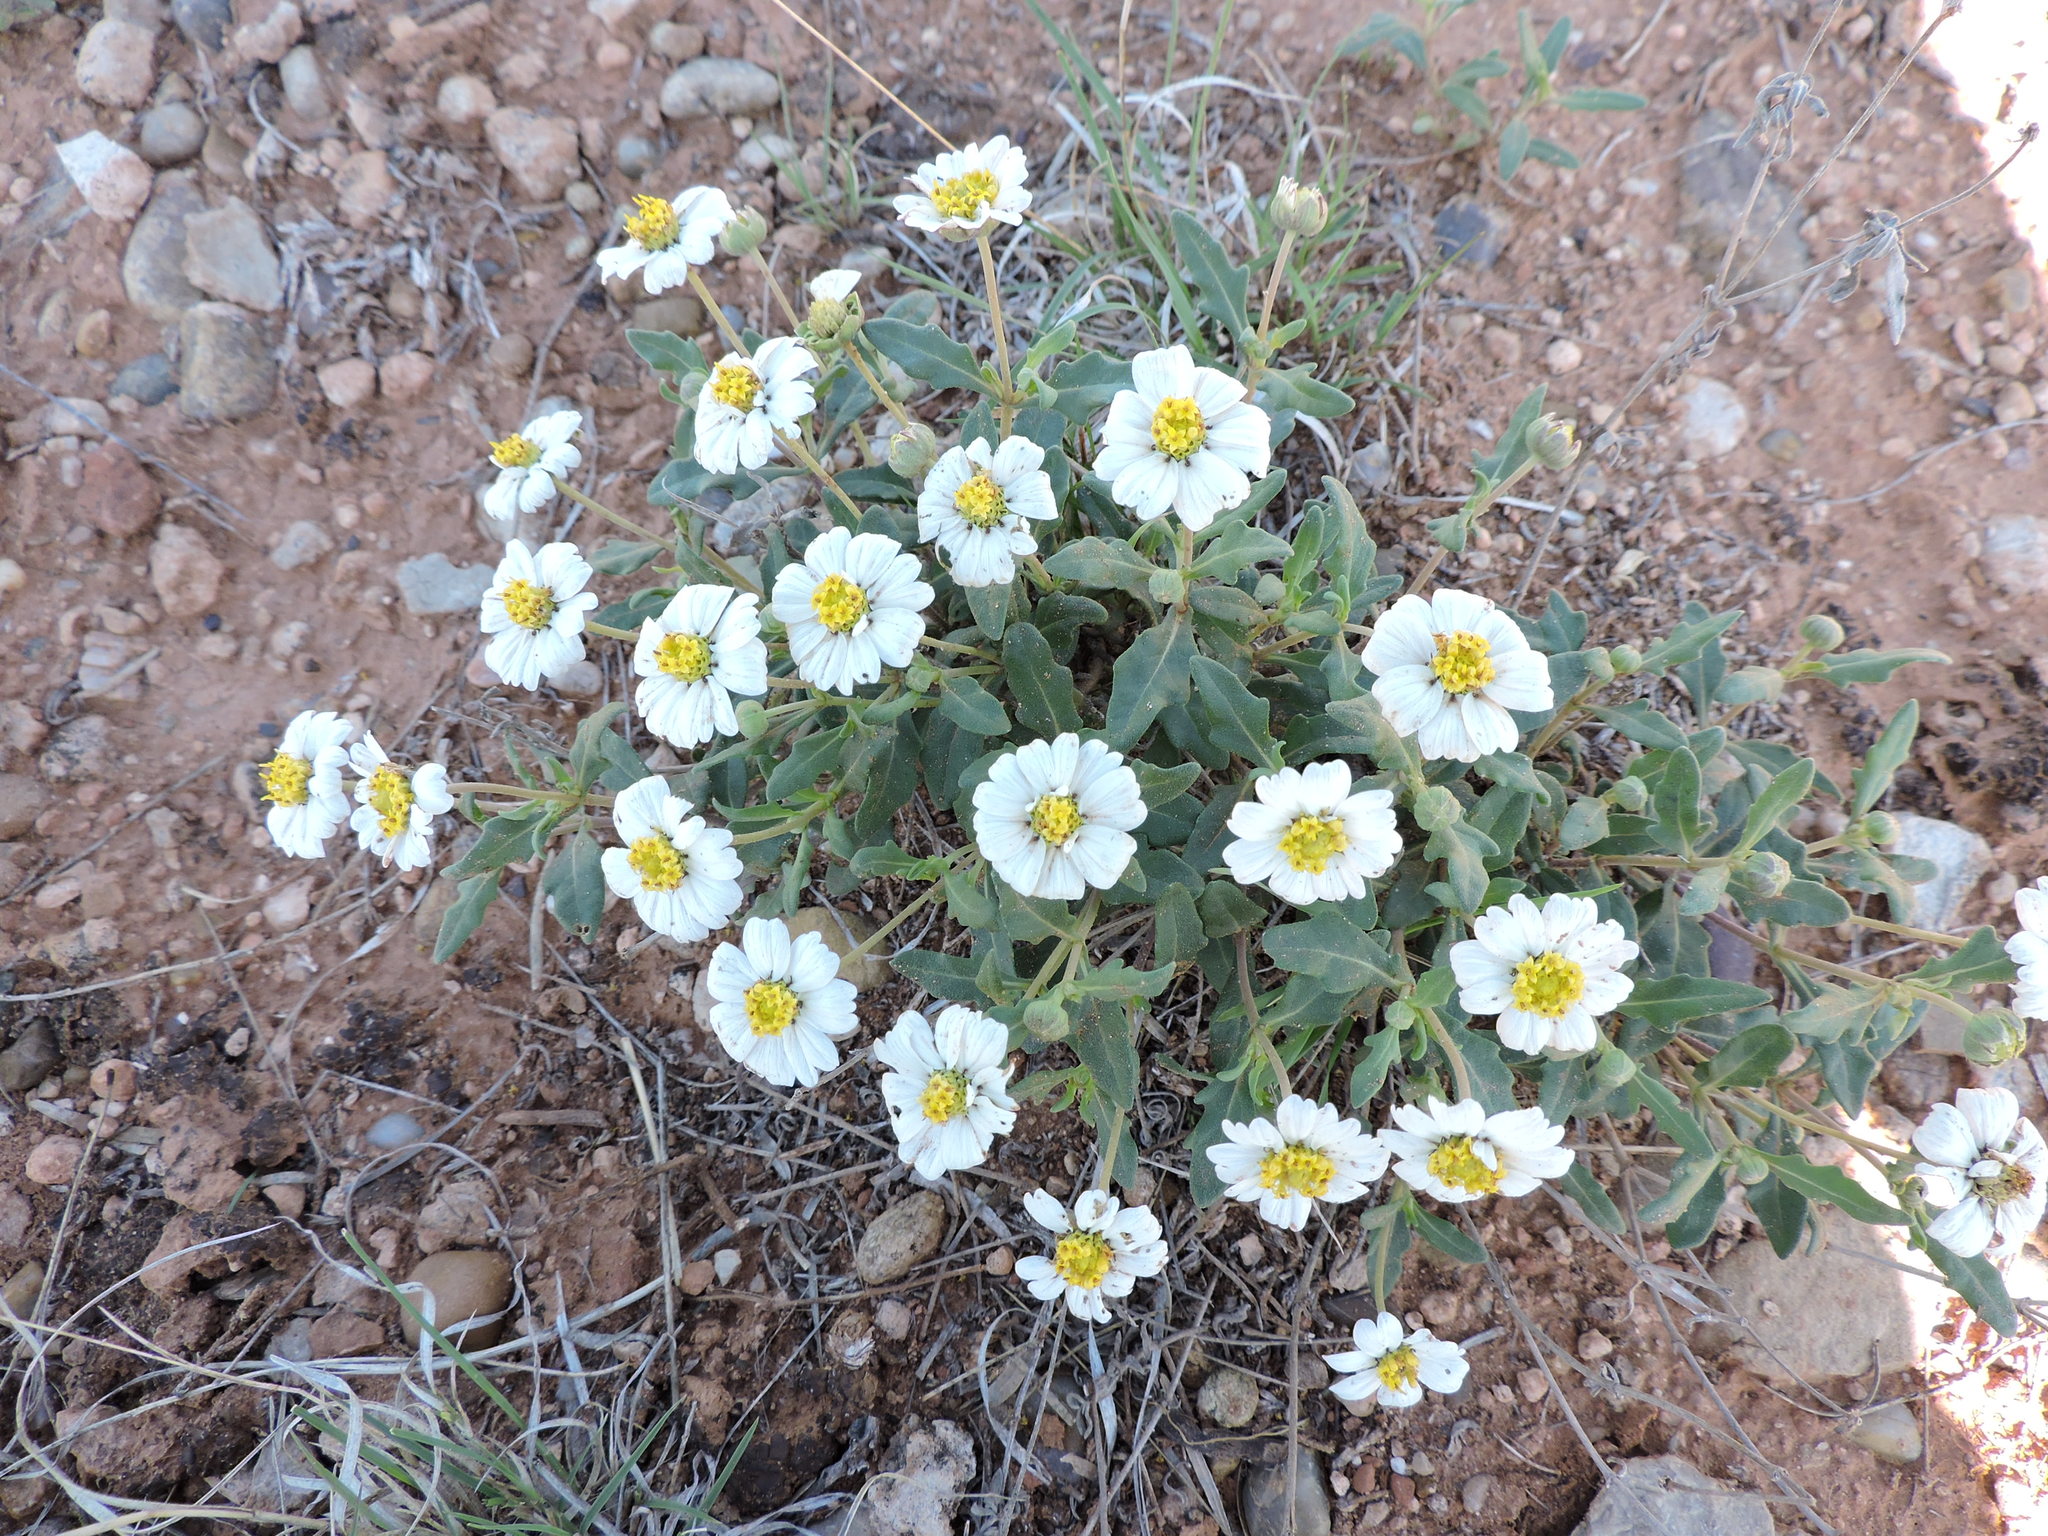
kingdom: Plantae
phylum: Tracheophyta
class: Magnoliopsida
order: Asterales
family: Asteraceae
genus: Melampodium
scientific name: Melampodium leucanthum
